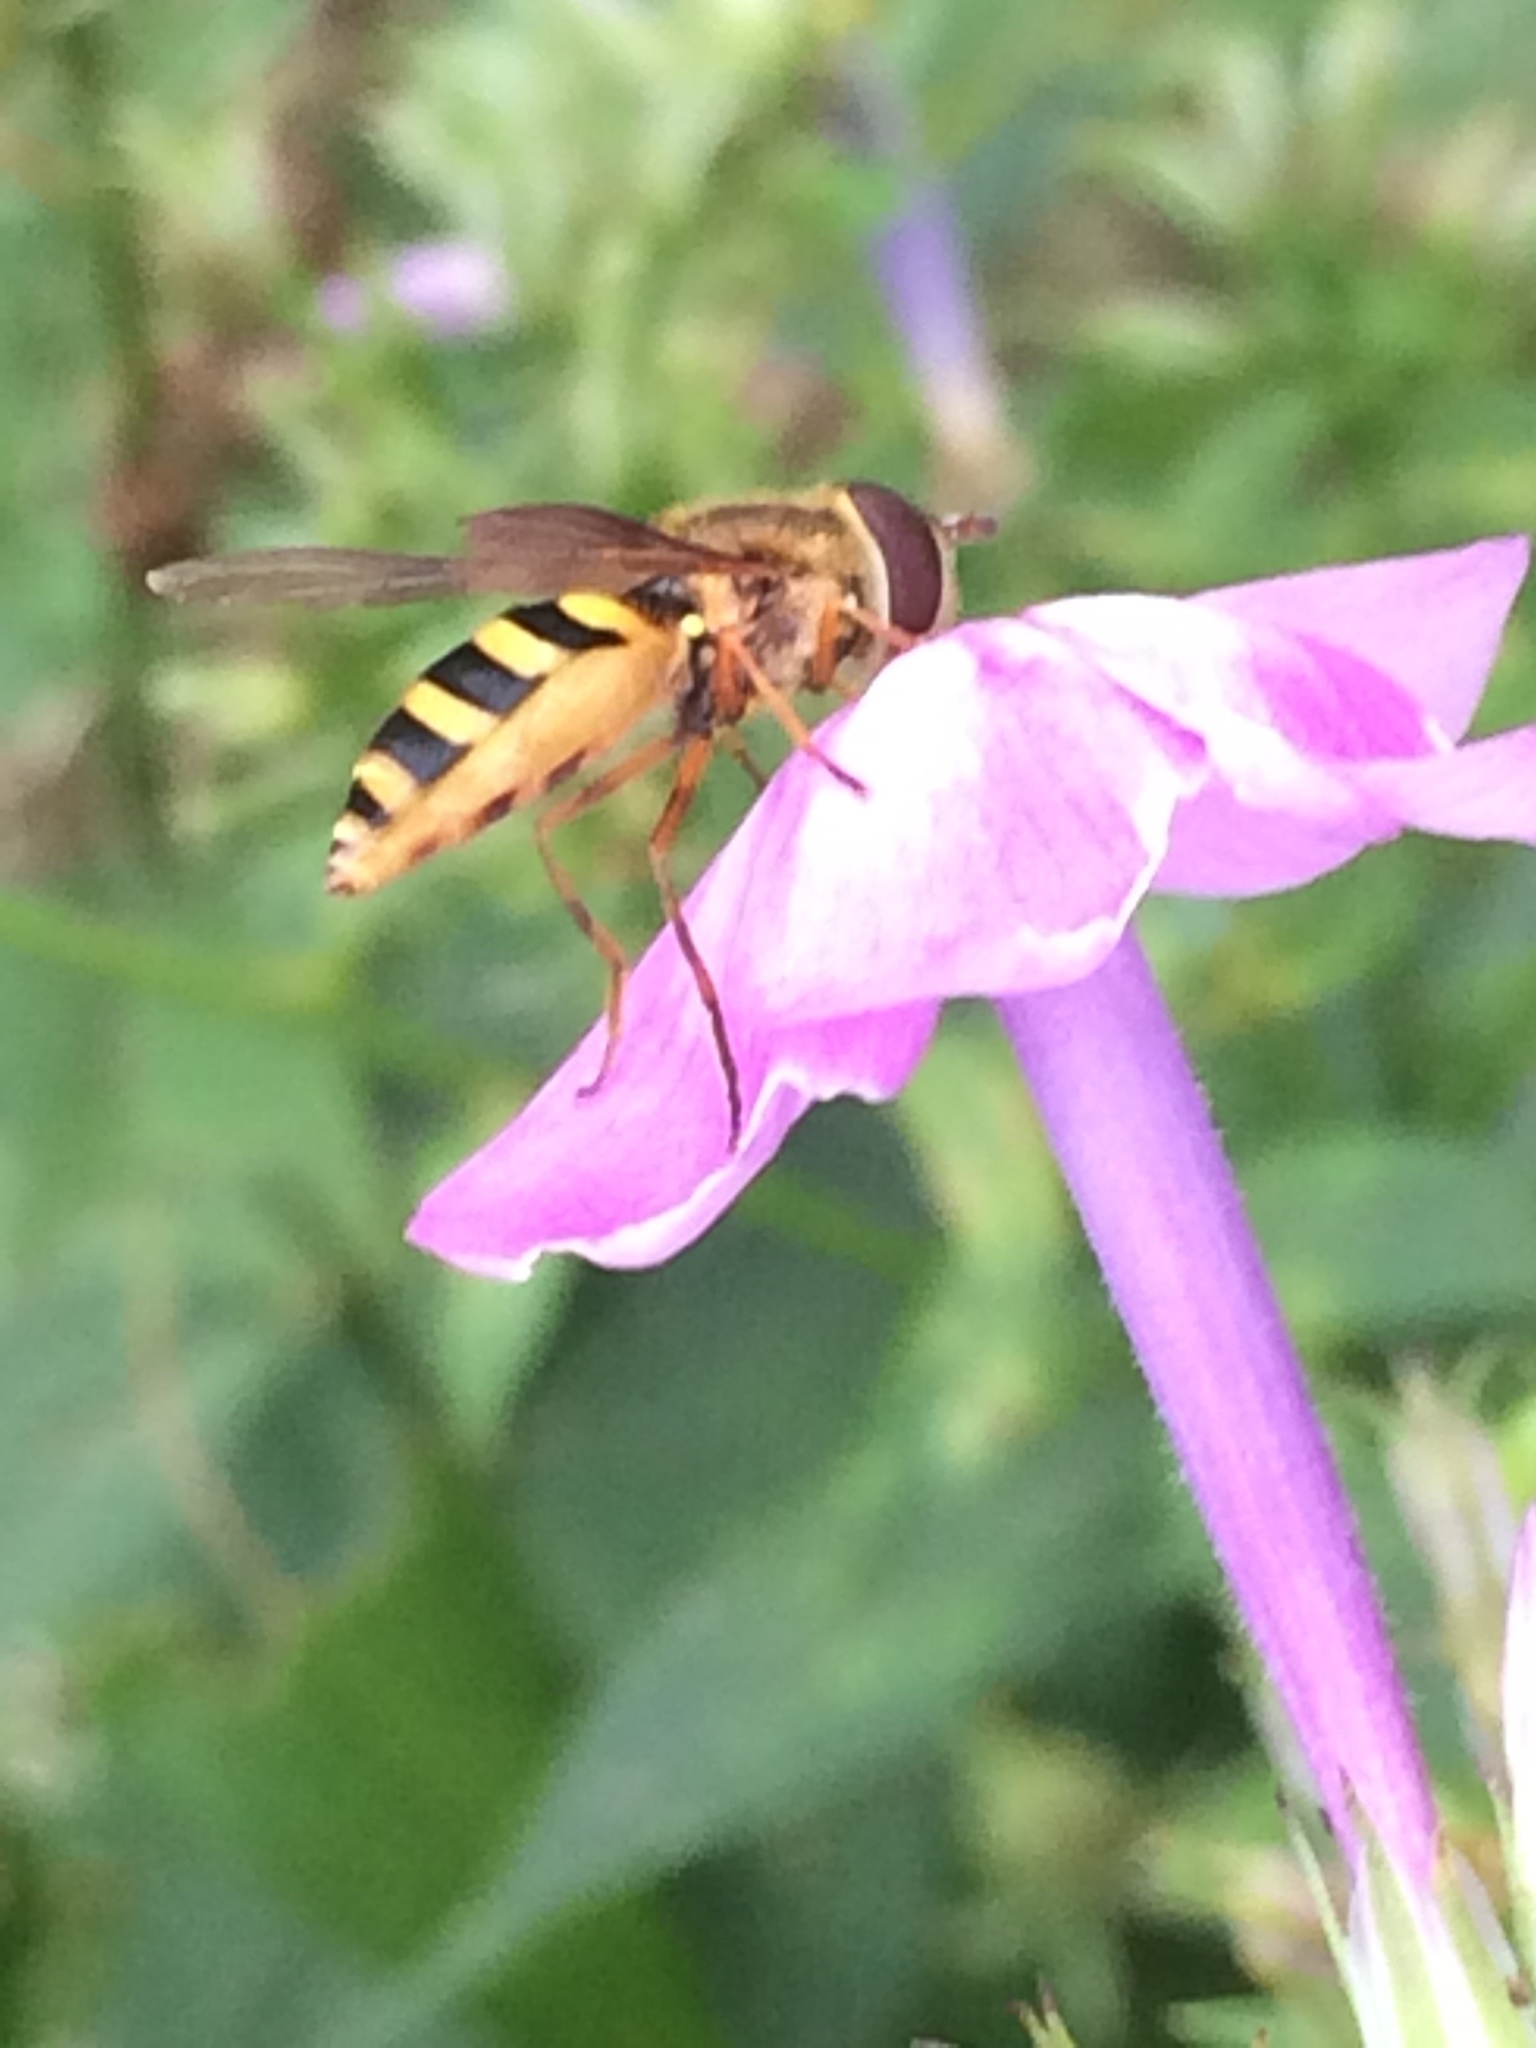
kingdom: Animalia
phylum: Arthropoda
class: Insecta
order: Diptera
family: Syrphidae
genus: Syrphus
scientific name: Syrphus
